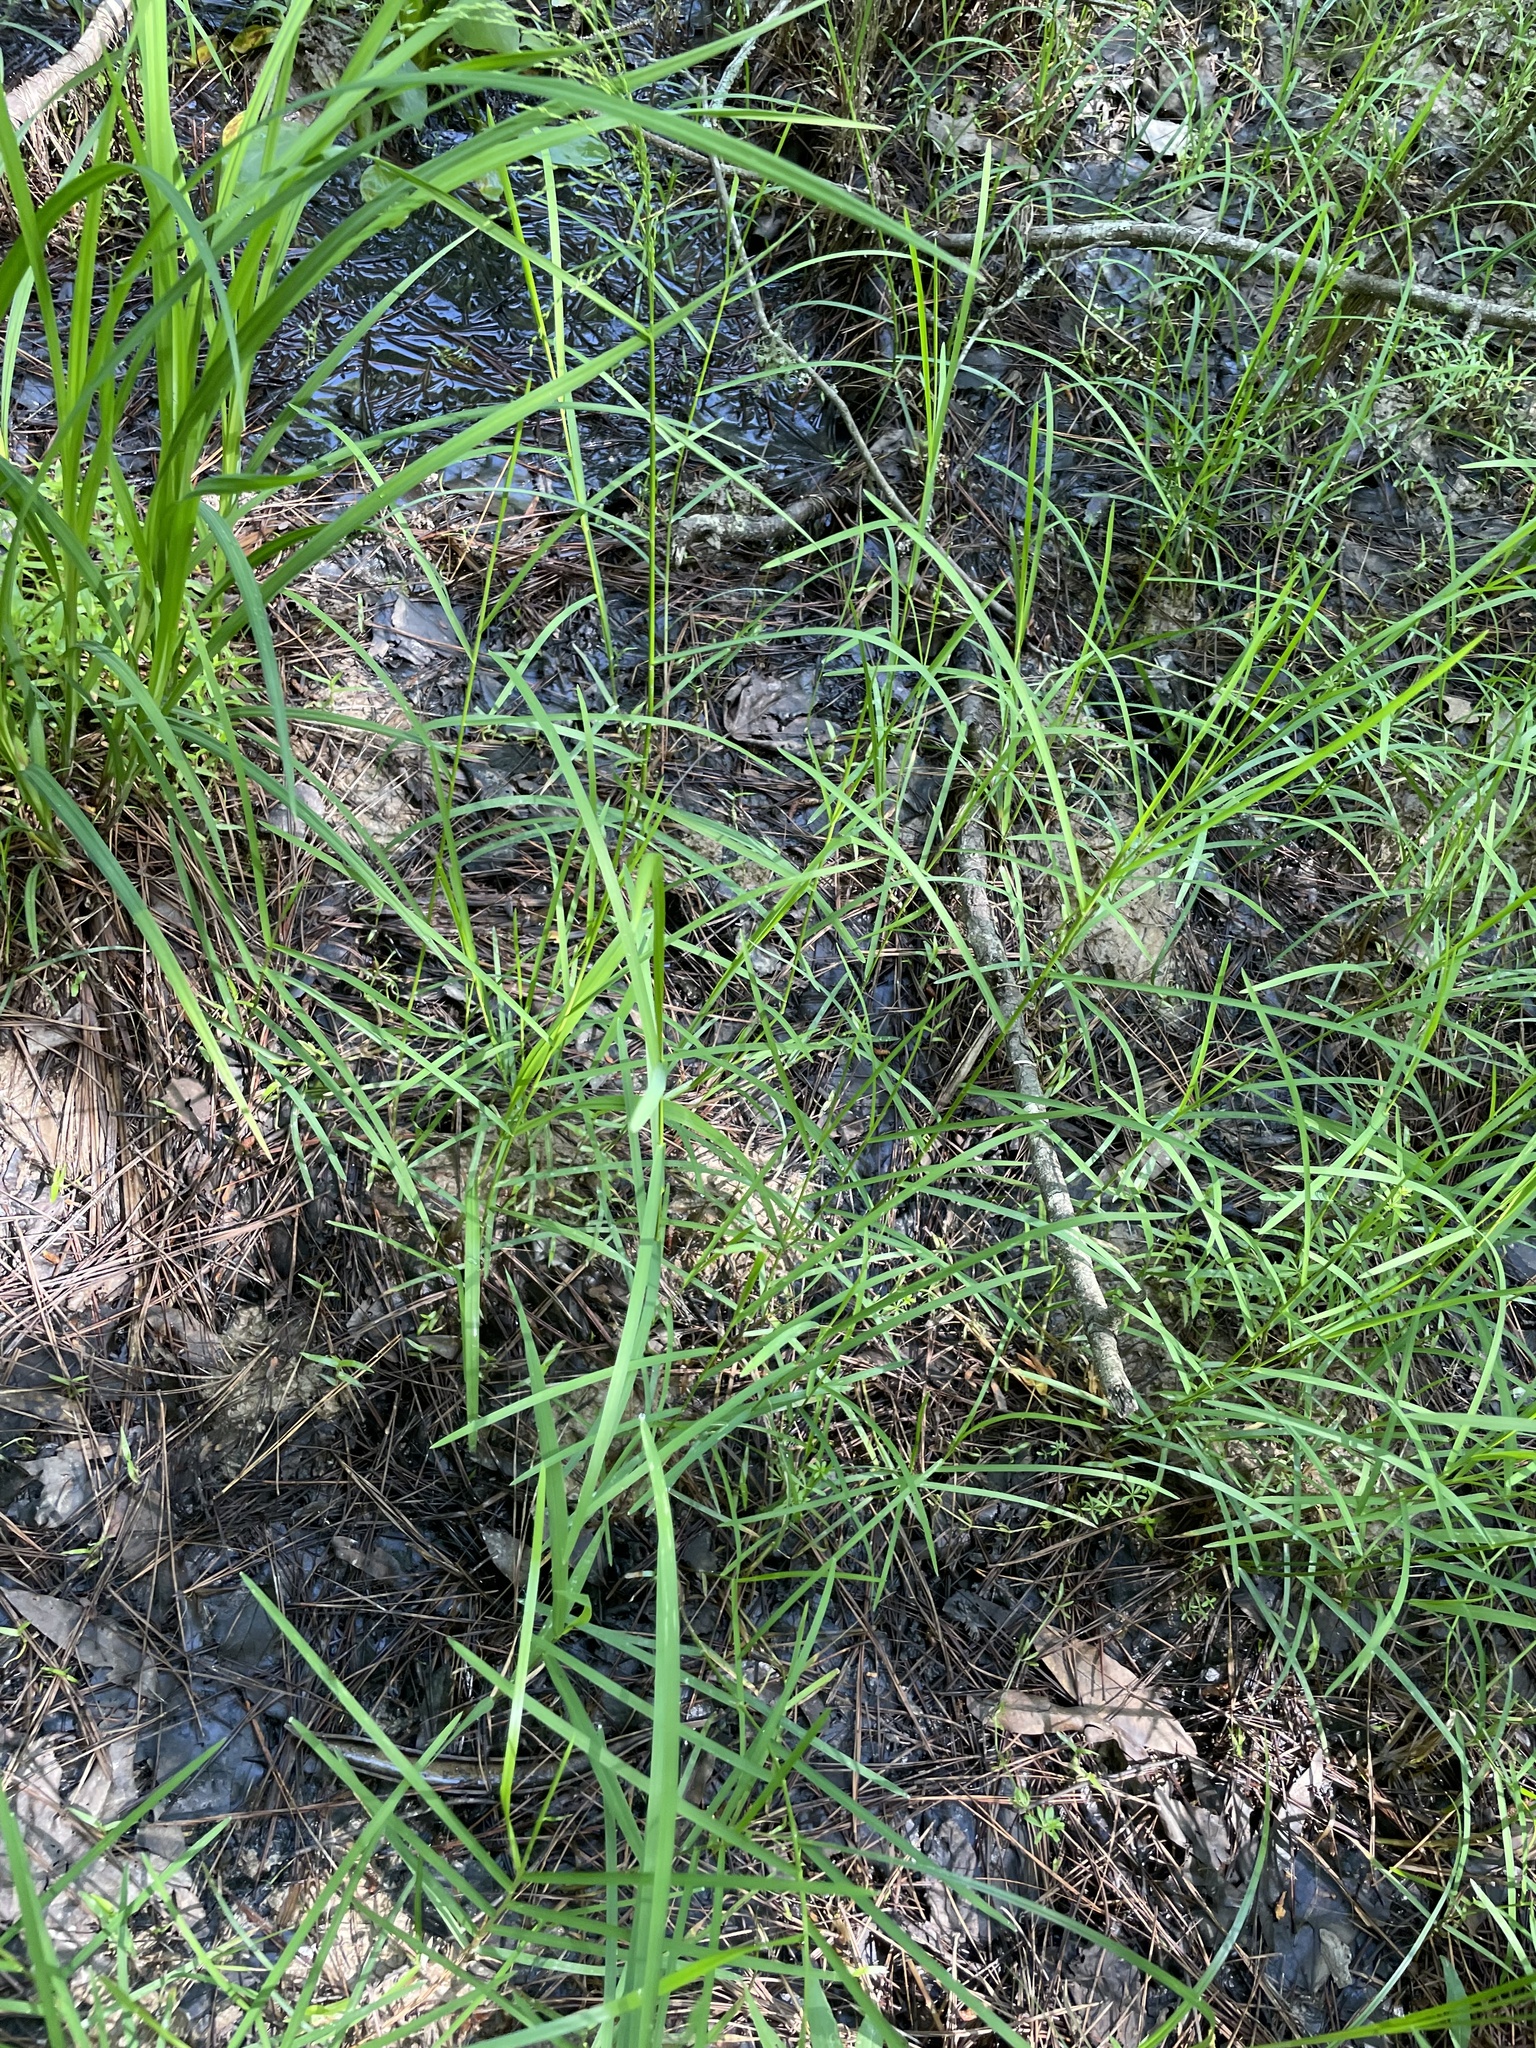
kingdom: Plantae
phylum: Tracheophyta
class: Liliopsida
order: Poales
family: Poaceae
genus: Glyceria
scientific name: Glyceria striata
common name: Fowl manna grass
